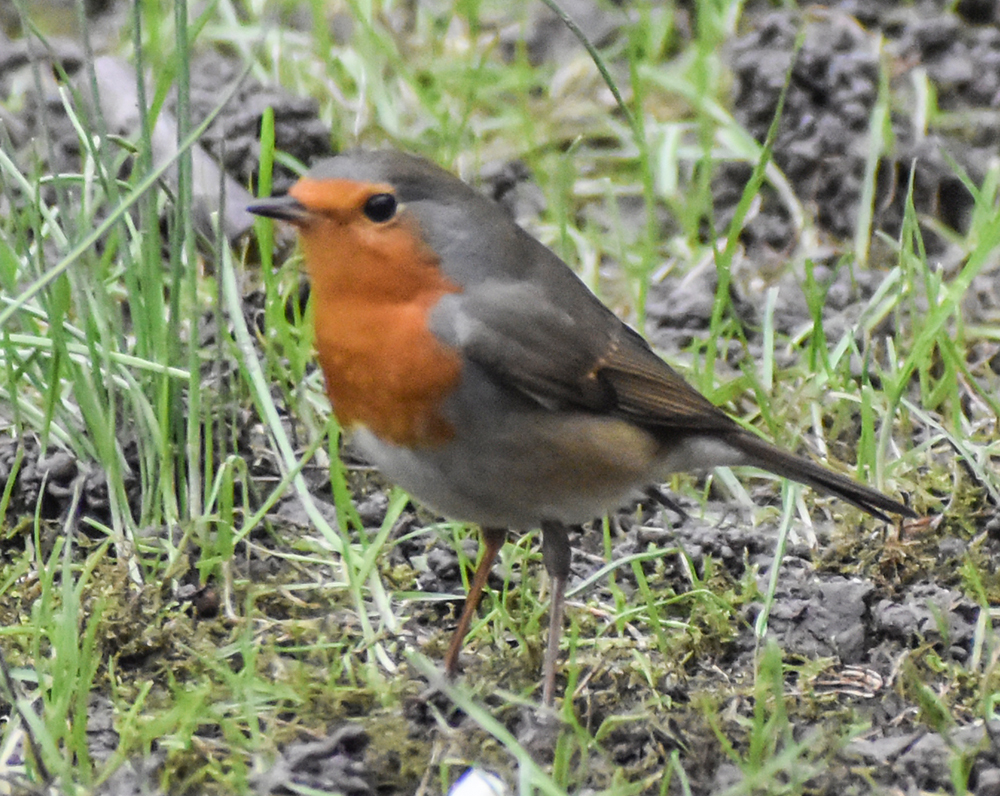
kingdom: Animalia
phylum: Chordata
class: Aves
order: Passeriformes
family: Muscicapidae
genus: Erithacus
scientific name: Erithacus rubecula
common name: European robin
